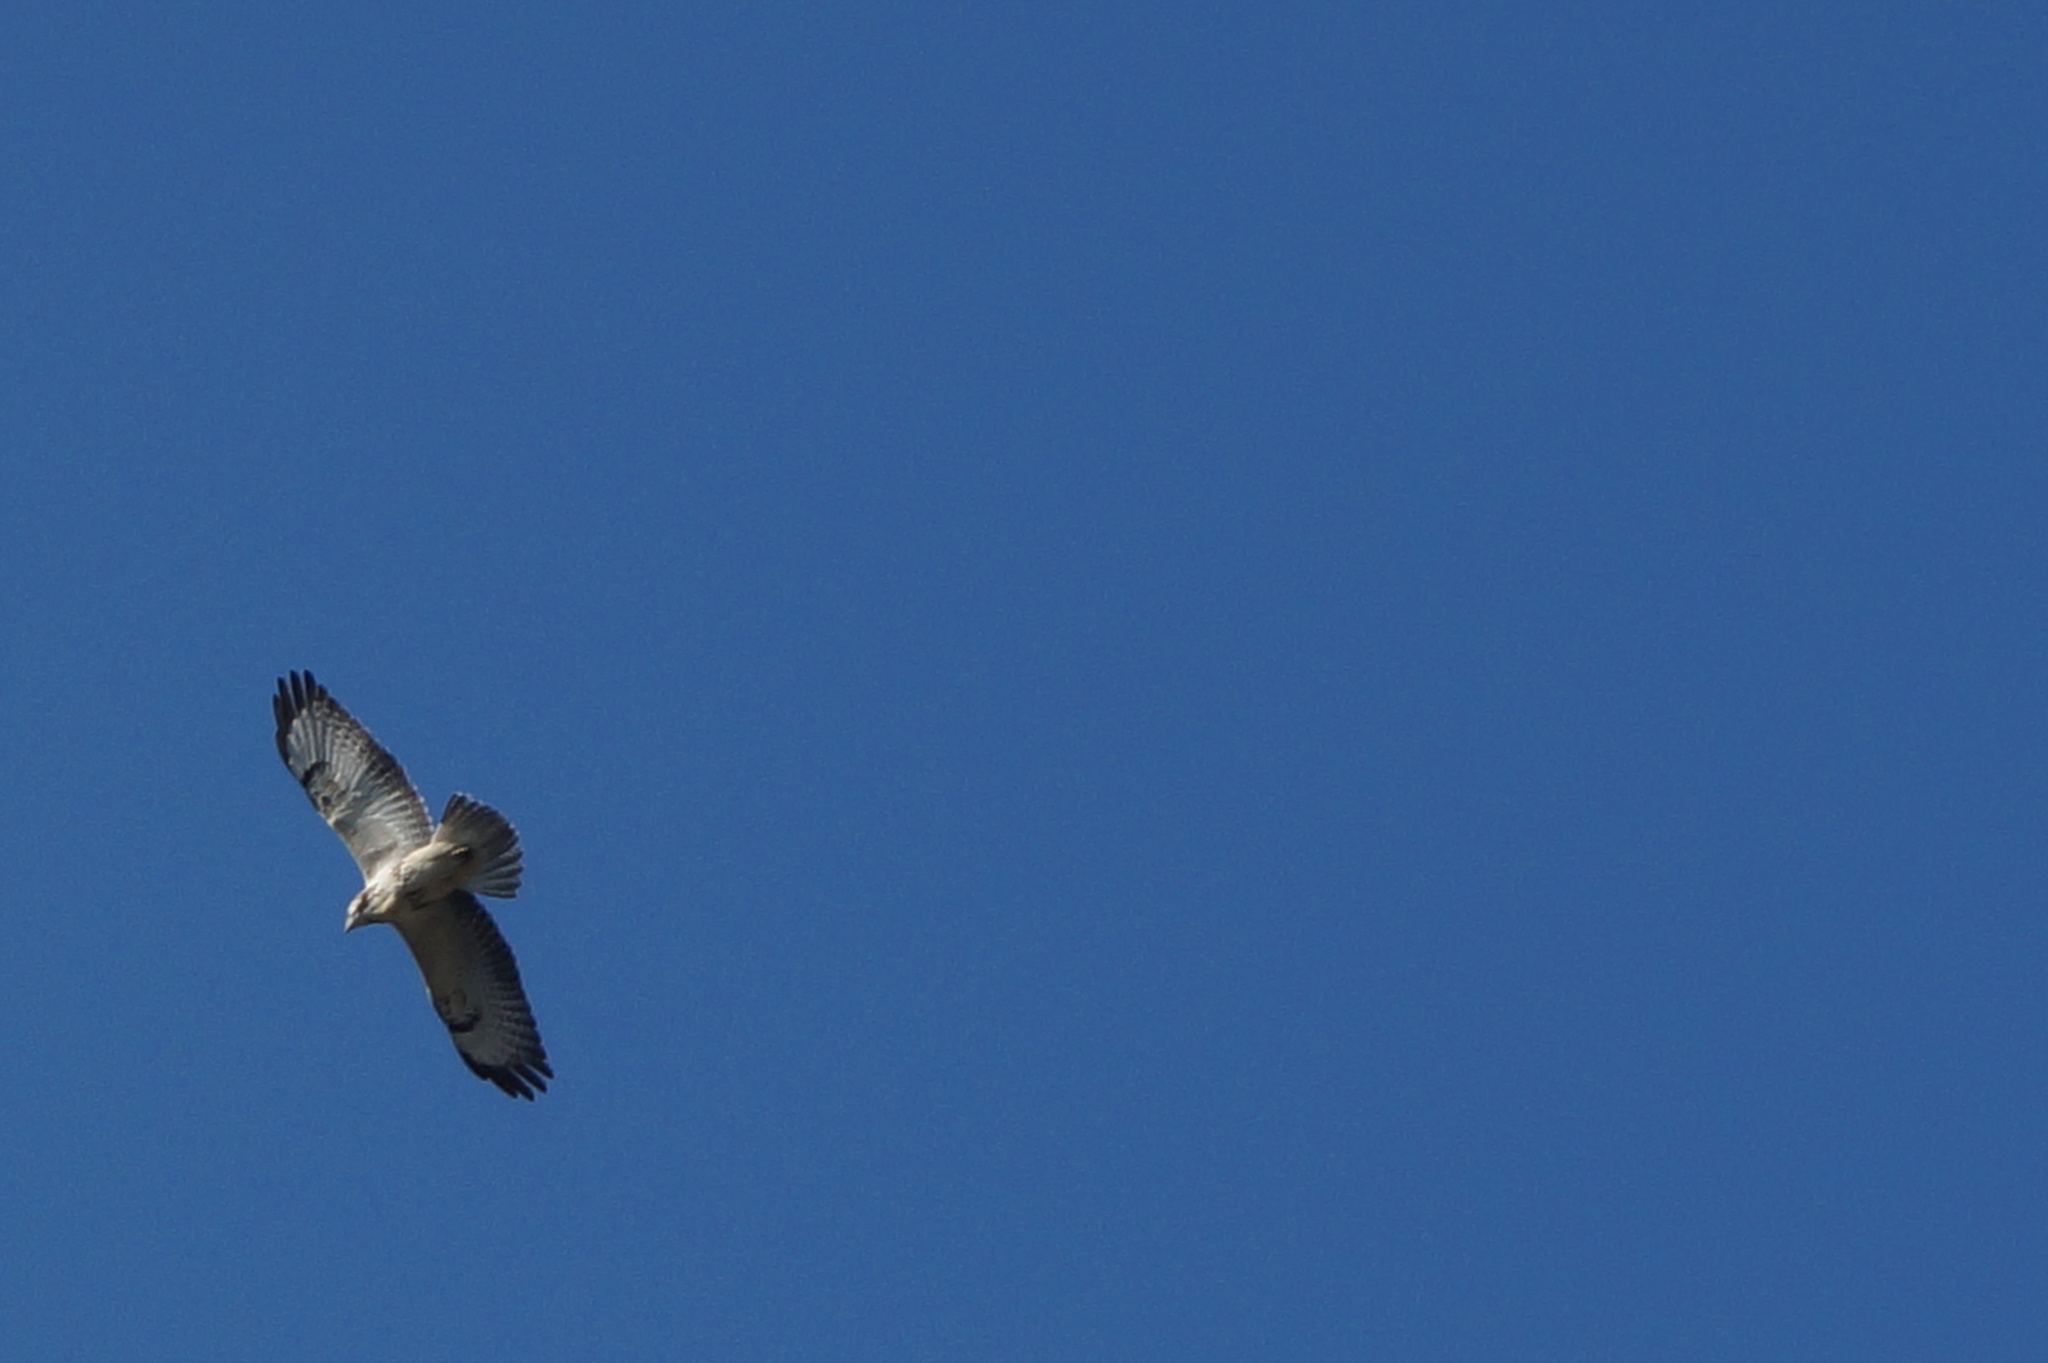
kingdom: Animalia
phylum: Chordata
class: Aves
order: Accipitriformes
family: Accipitridae
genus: Buteo
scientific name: Buteo buteo
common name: Common buzzard
